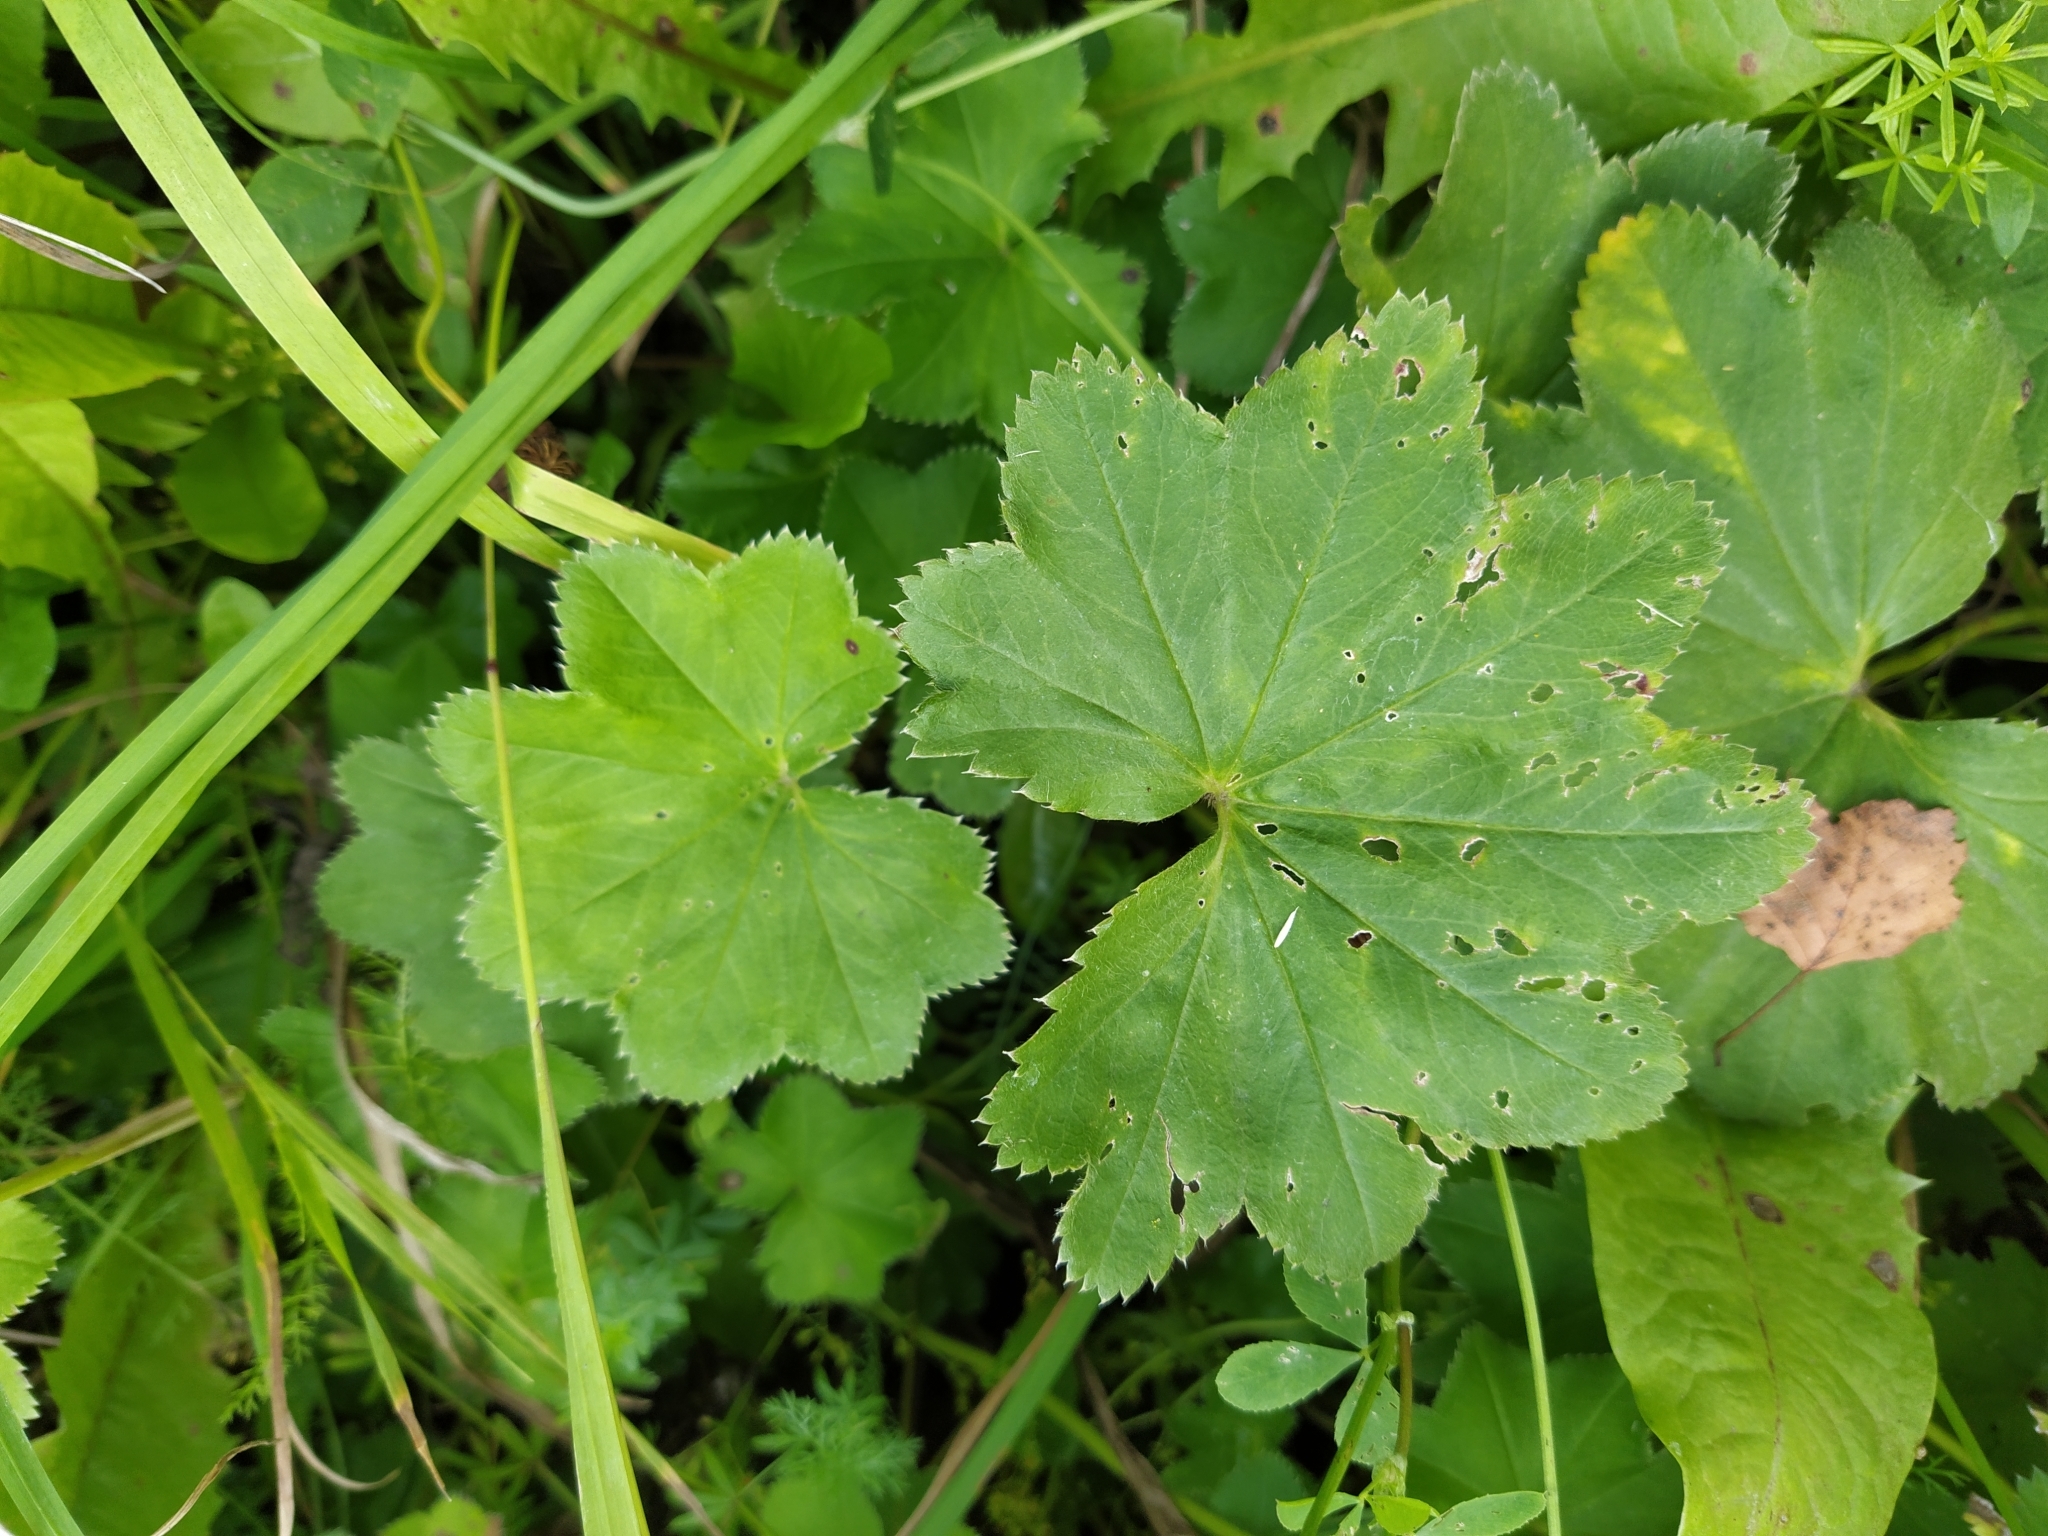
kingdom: Plantae
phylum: Tracheophyta
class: Magnoliopsida
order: Rosales
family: Rosaceae
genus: Alchemilla
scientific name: Alchemilla
